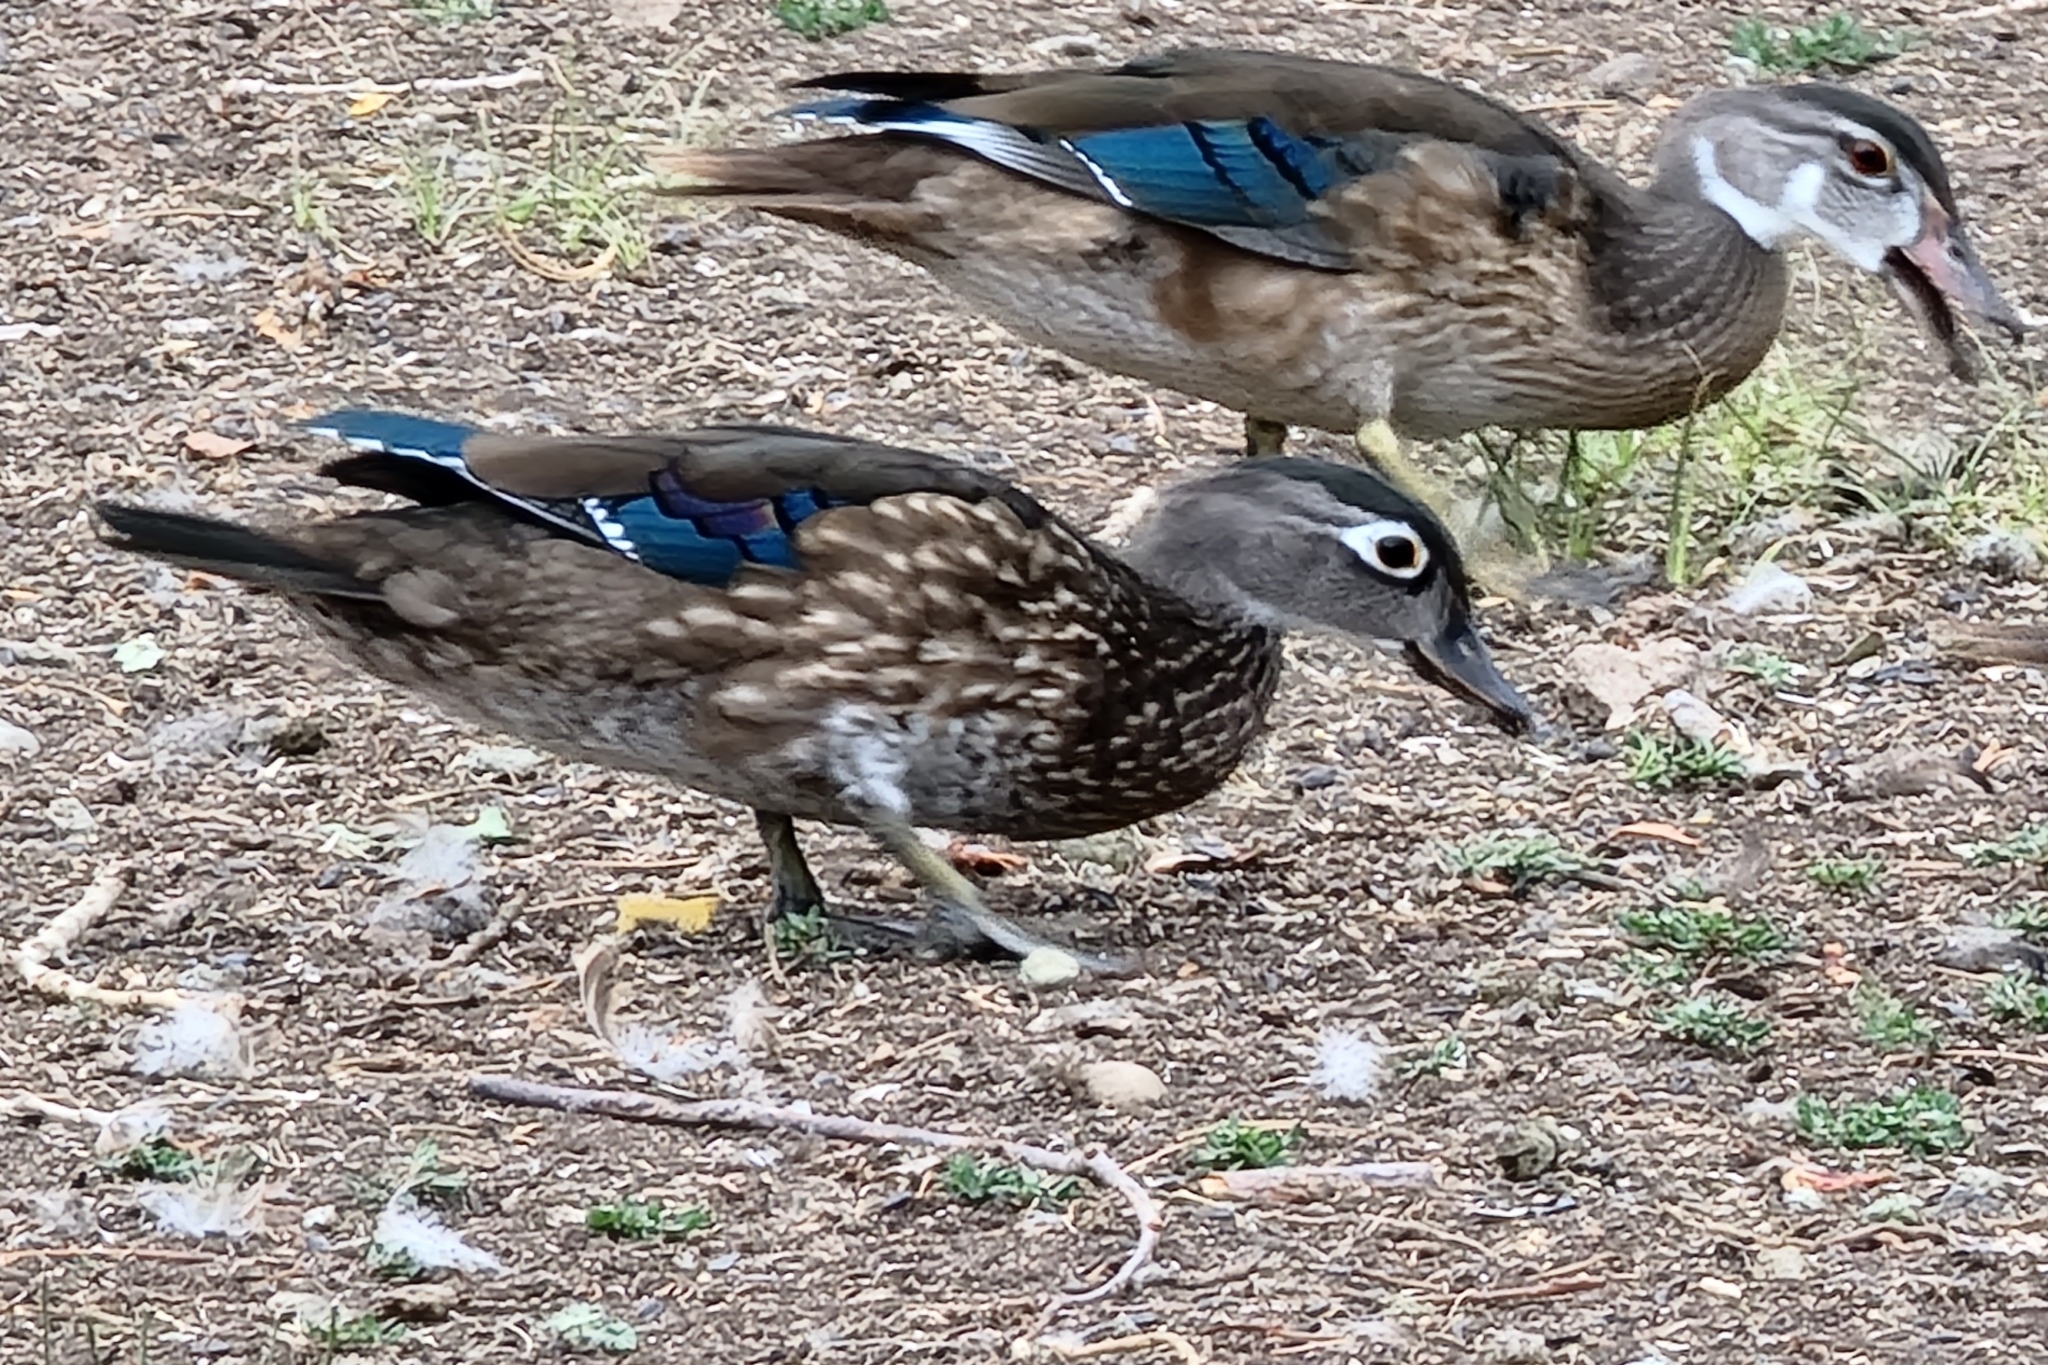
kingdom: Animalia
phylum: Chordata
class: Aves
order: Anseriformes
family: Anatidae
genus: Aix
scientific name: Aix sponsa
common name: Wood duck
